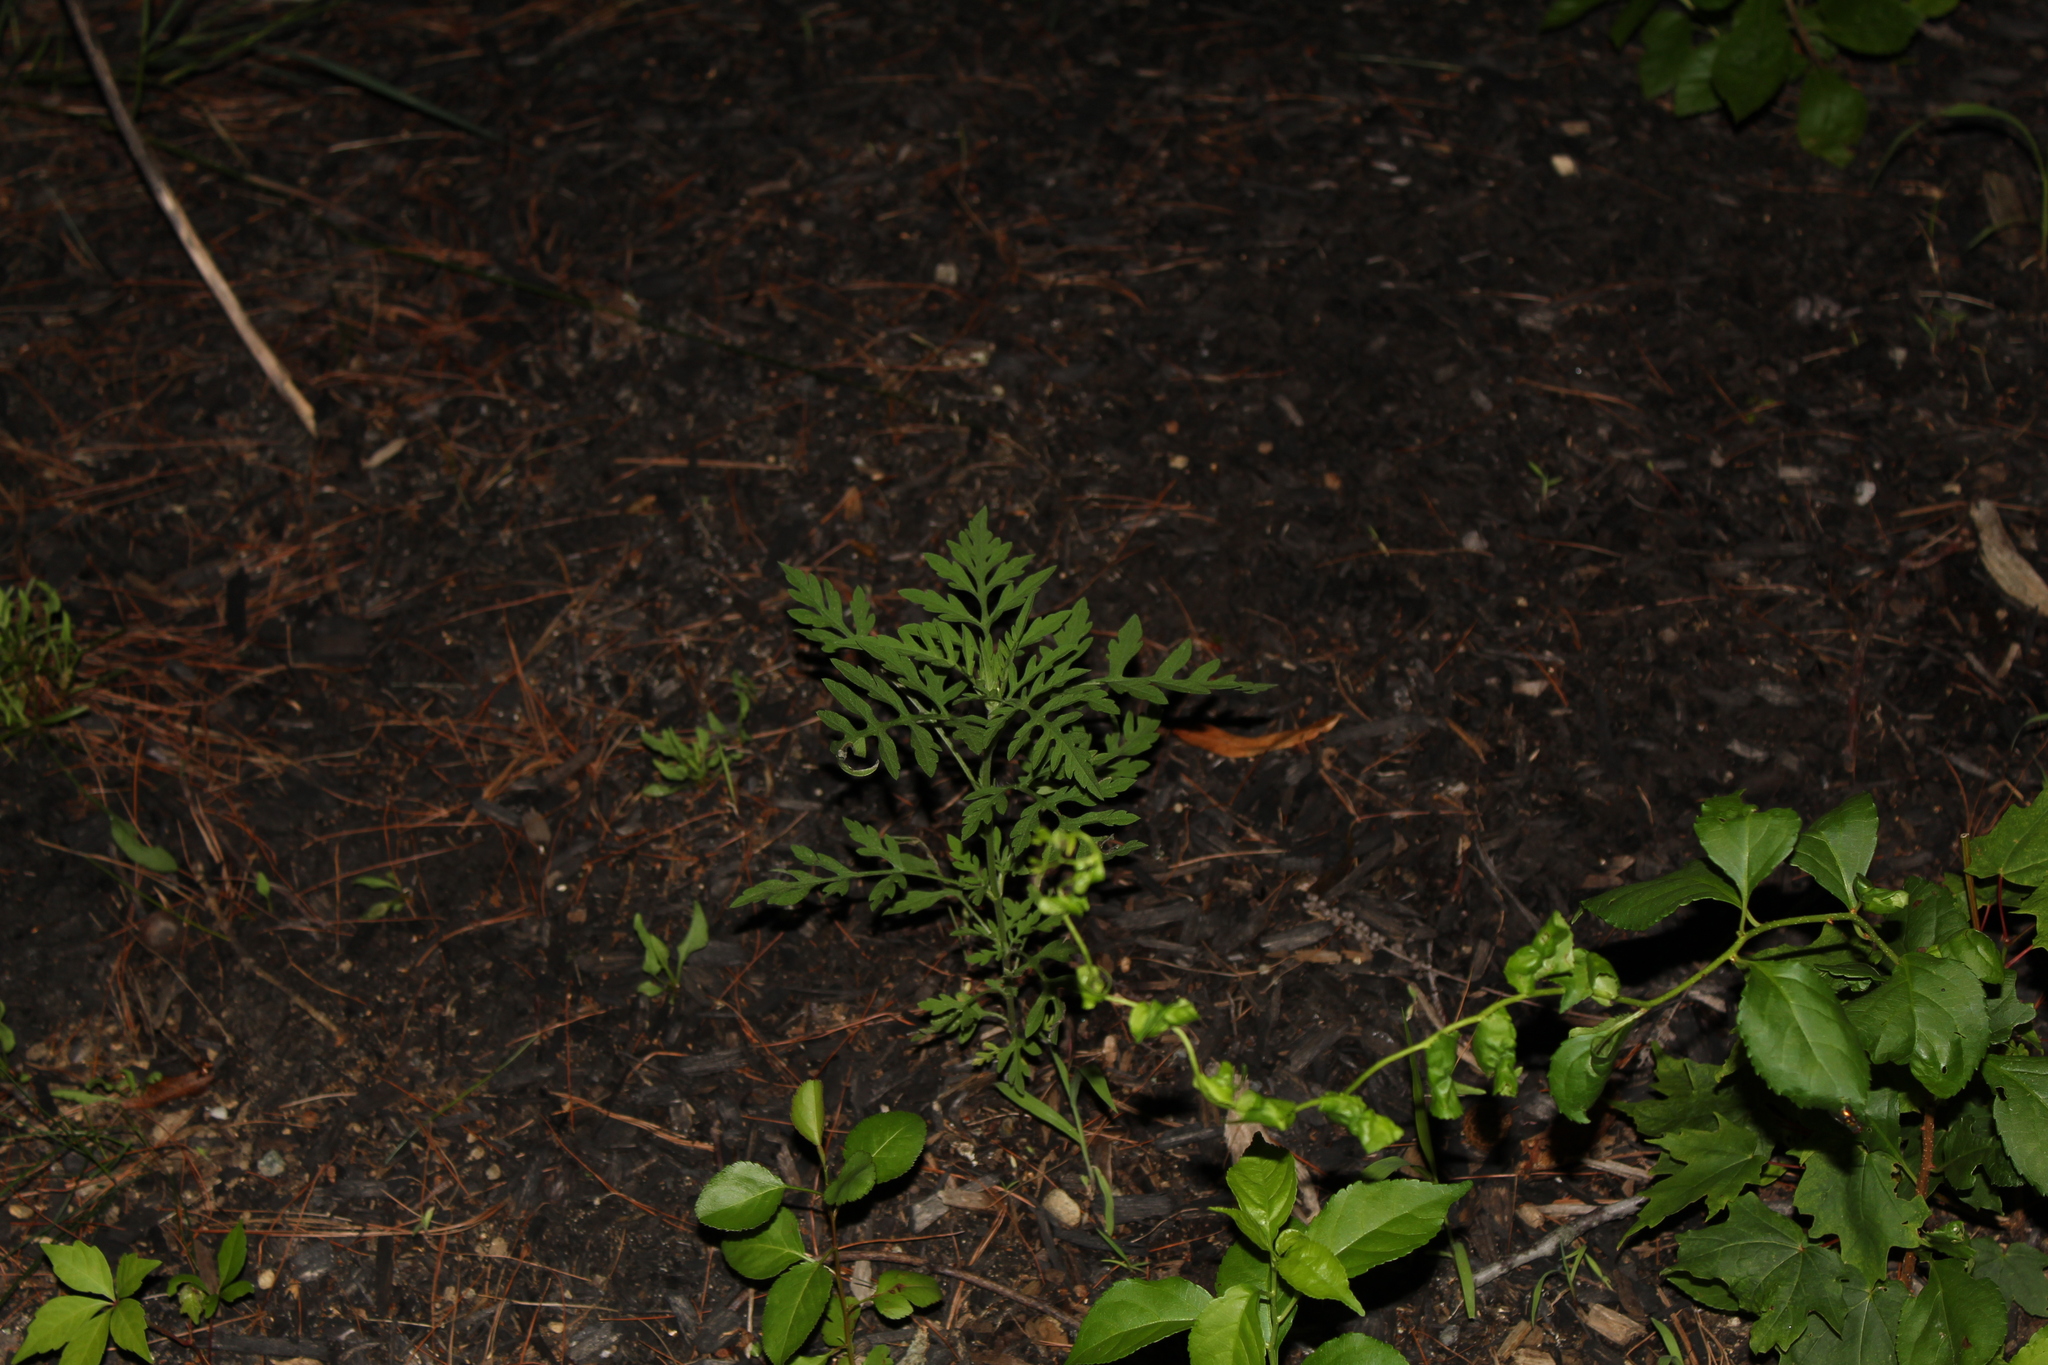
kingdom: Plantae
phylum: Tracheophyta
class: Magnoliopsida
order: Asterales
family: Asteraceae
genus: Ambrosia
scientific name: Ambrosia artemisiifolia
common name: Annual ragweed
